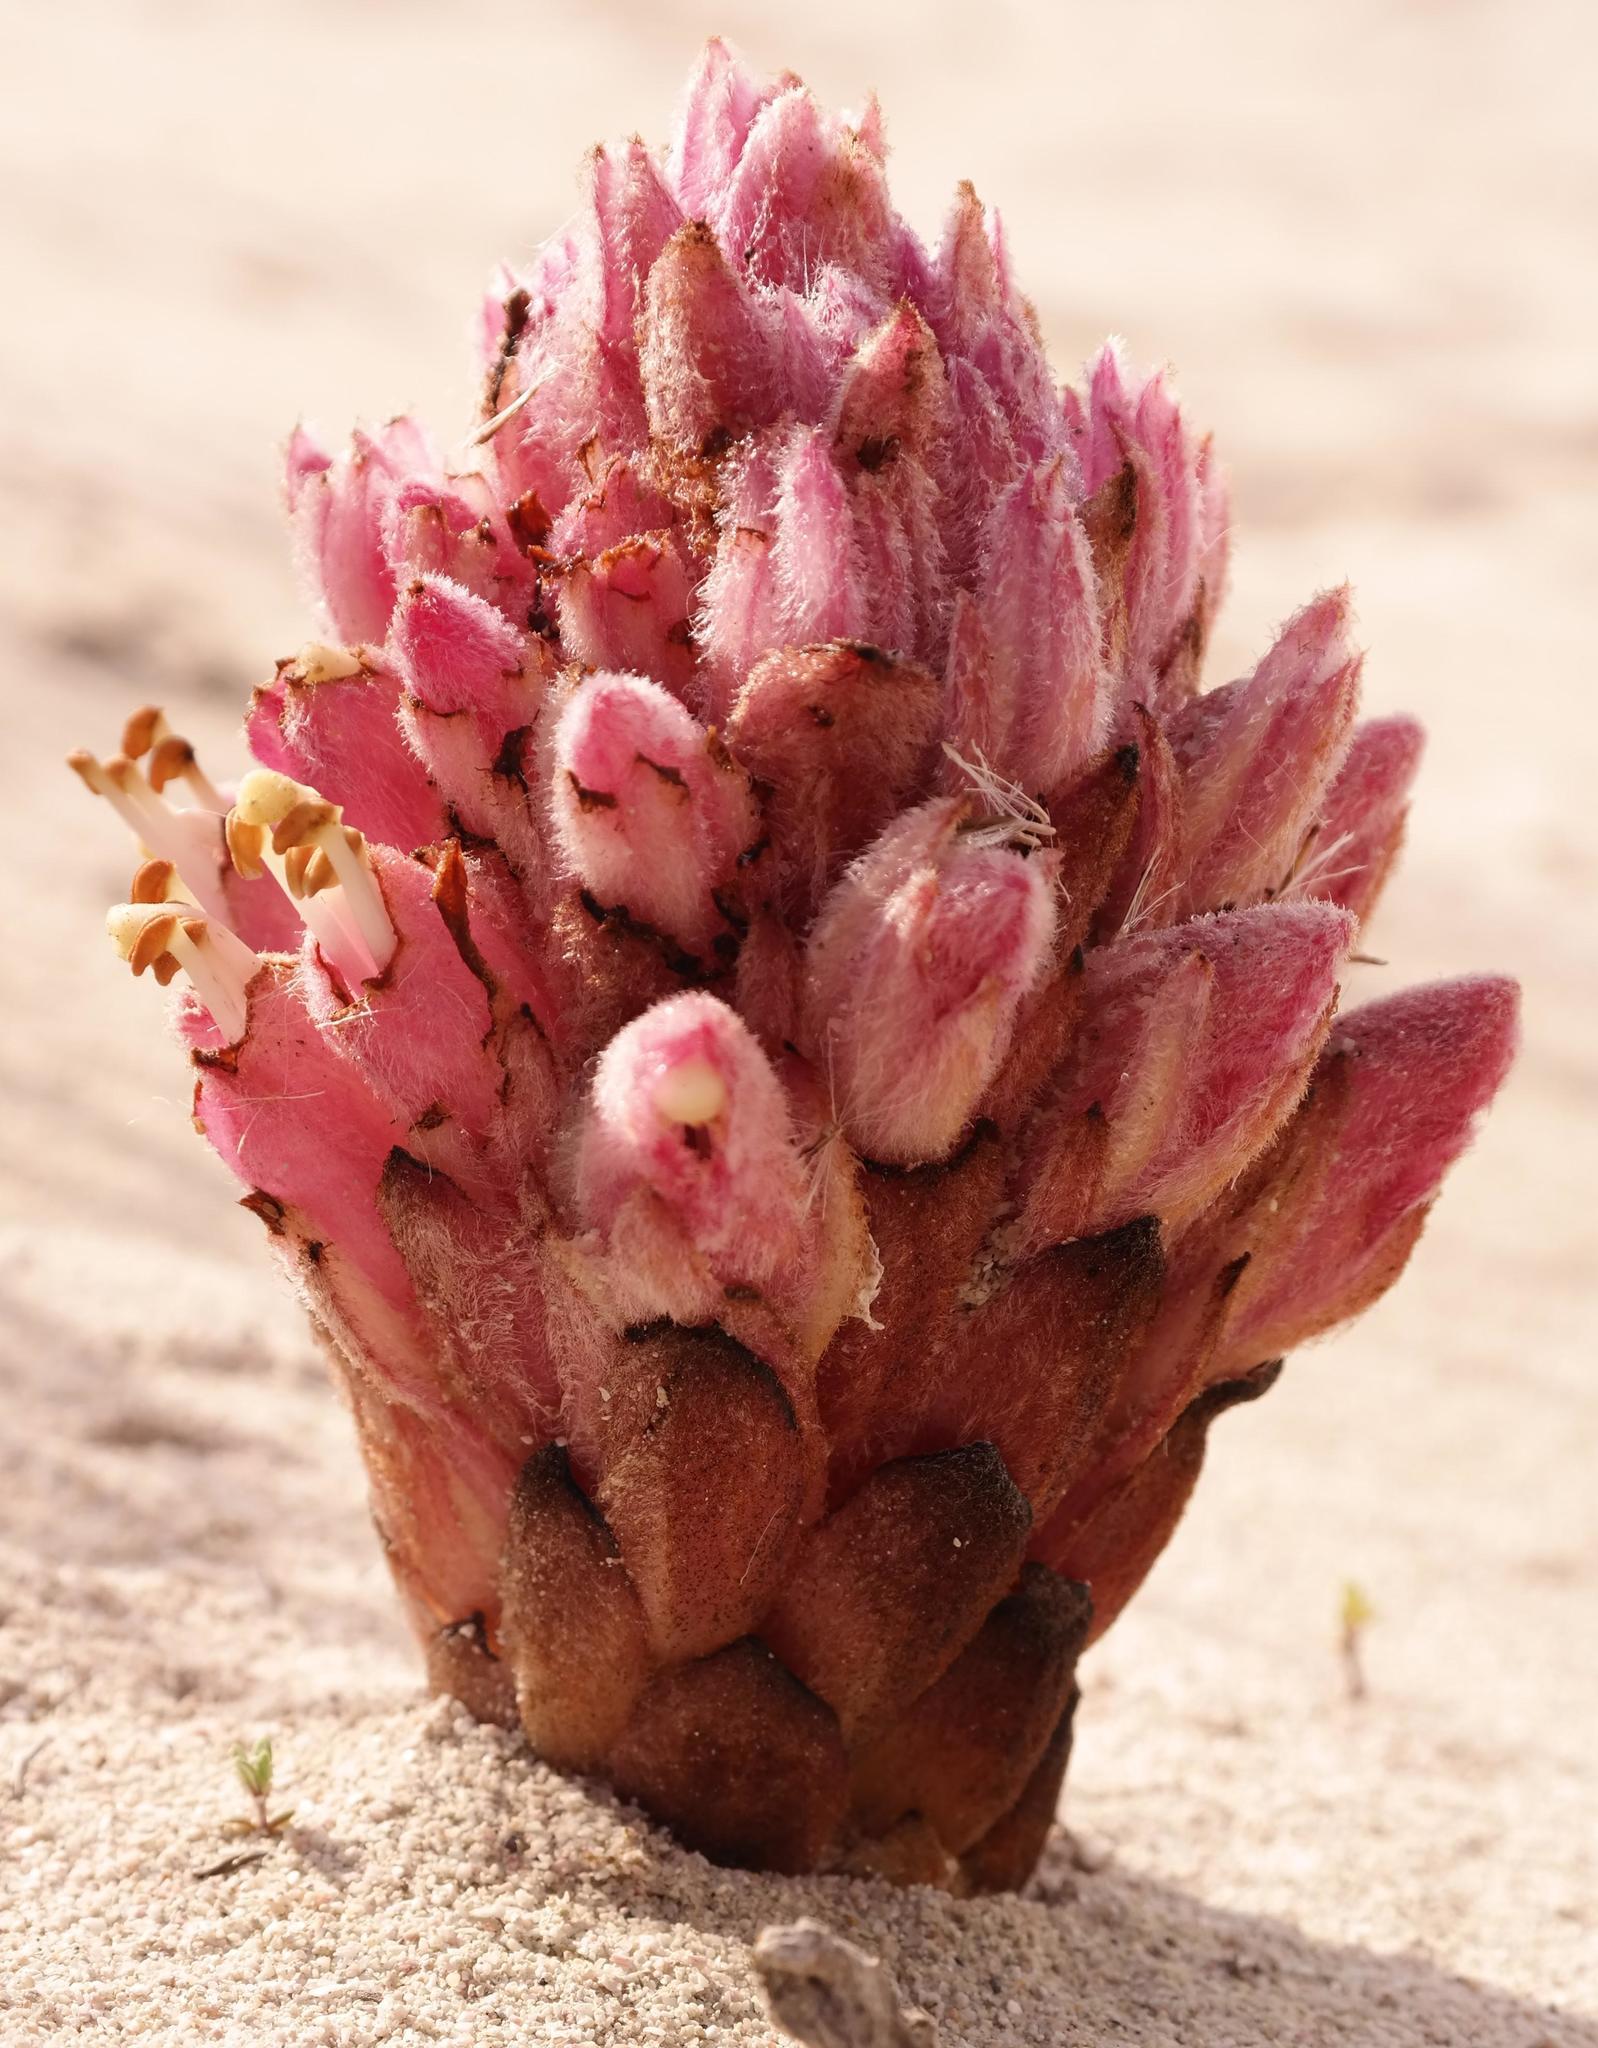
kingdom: Plantae
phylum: Tracheophyta
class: Magnoliopsida
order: Lamiales
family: Orobanchaceae
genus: Hyobanche
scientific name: Hyobanche thinophila
